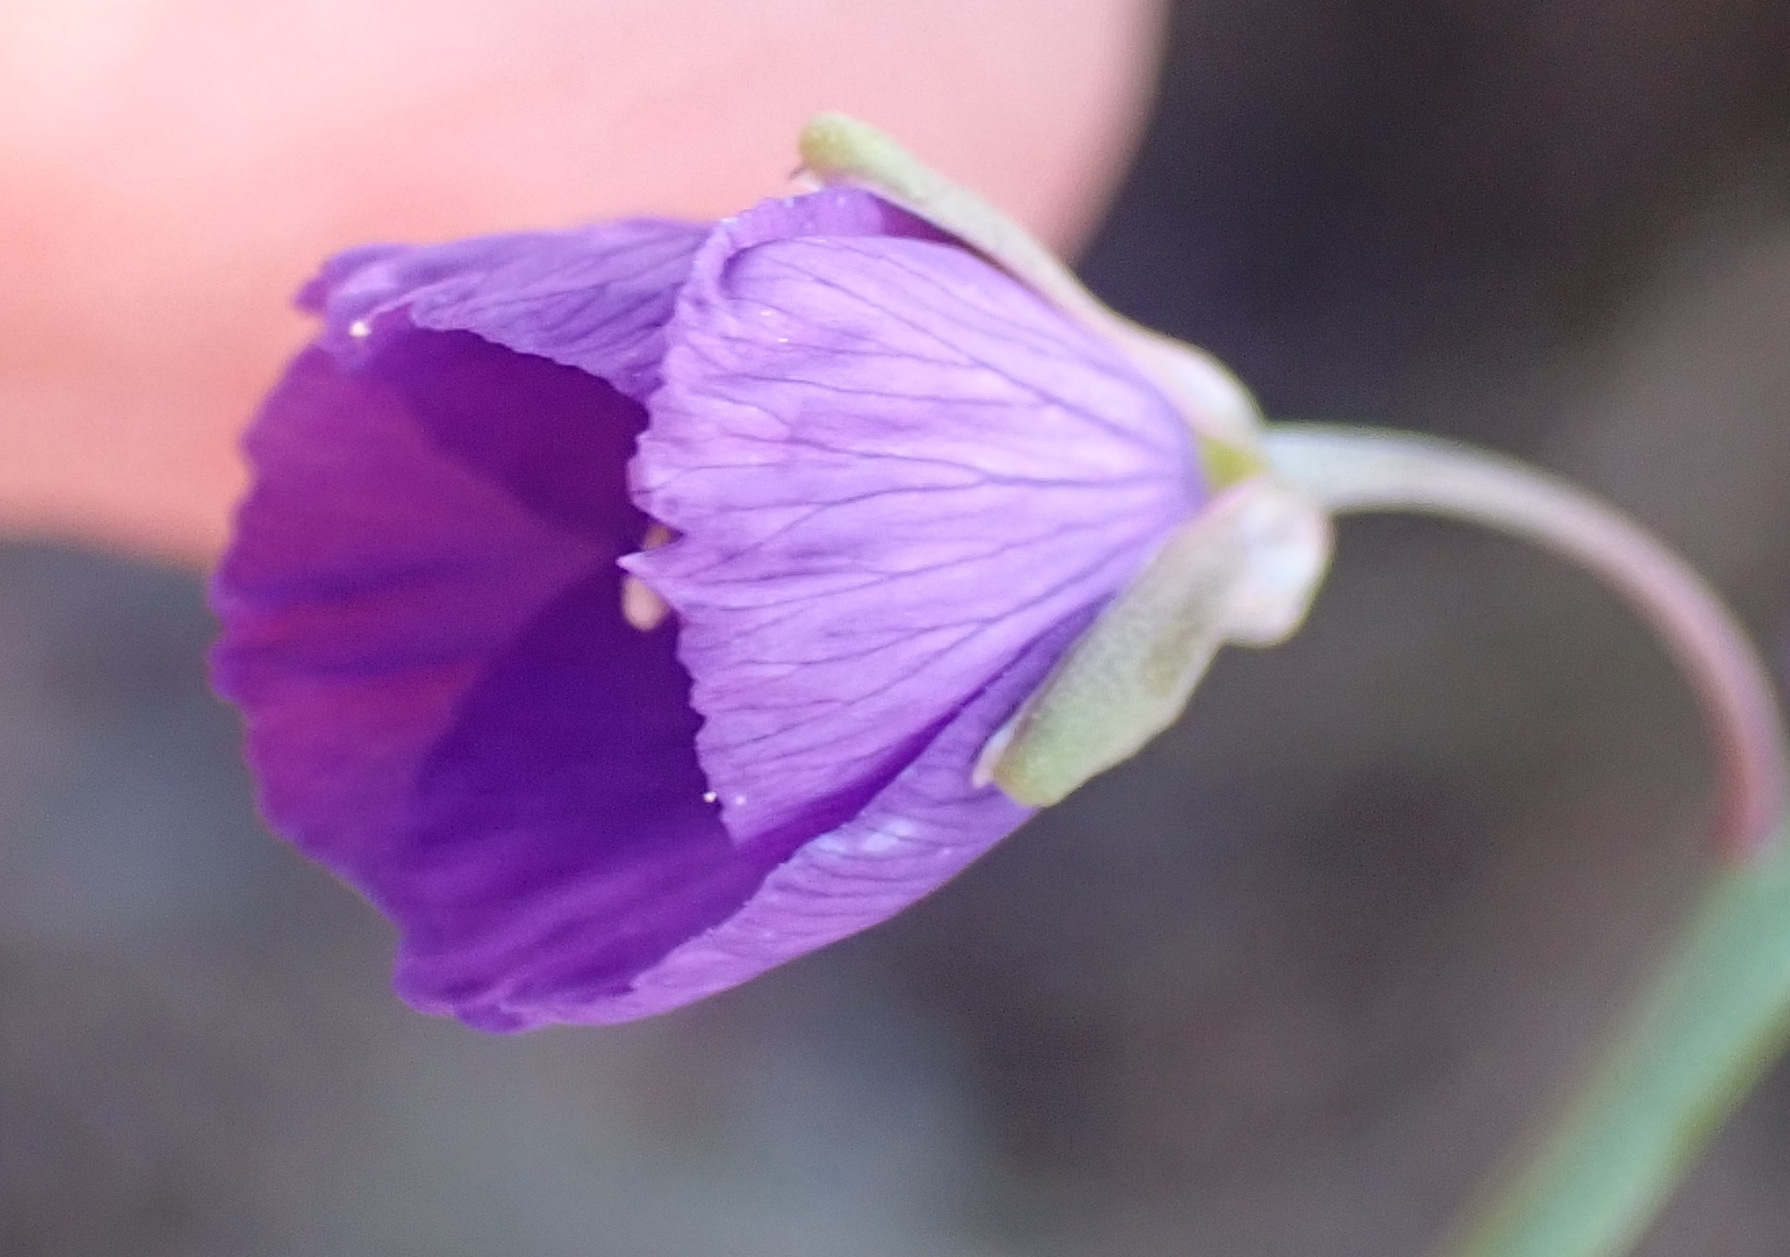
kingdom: Plantae
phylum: Tracheophyta
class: Magnoliopsida
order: Brassicales
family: Brassicaceae
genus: Heliophila
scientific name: Heliophila linearis
